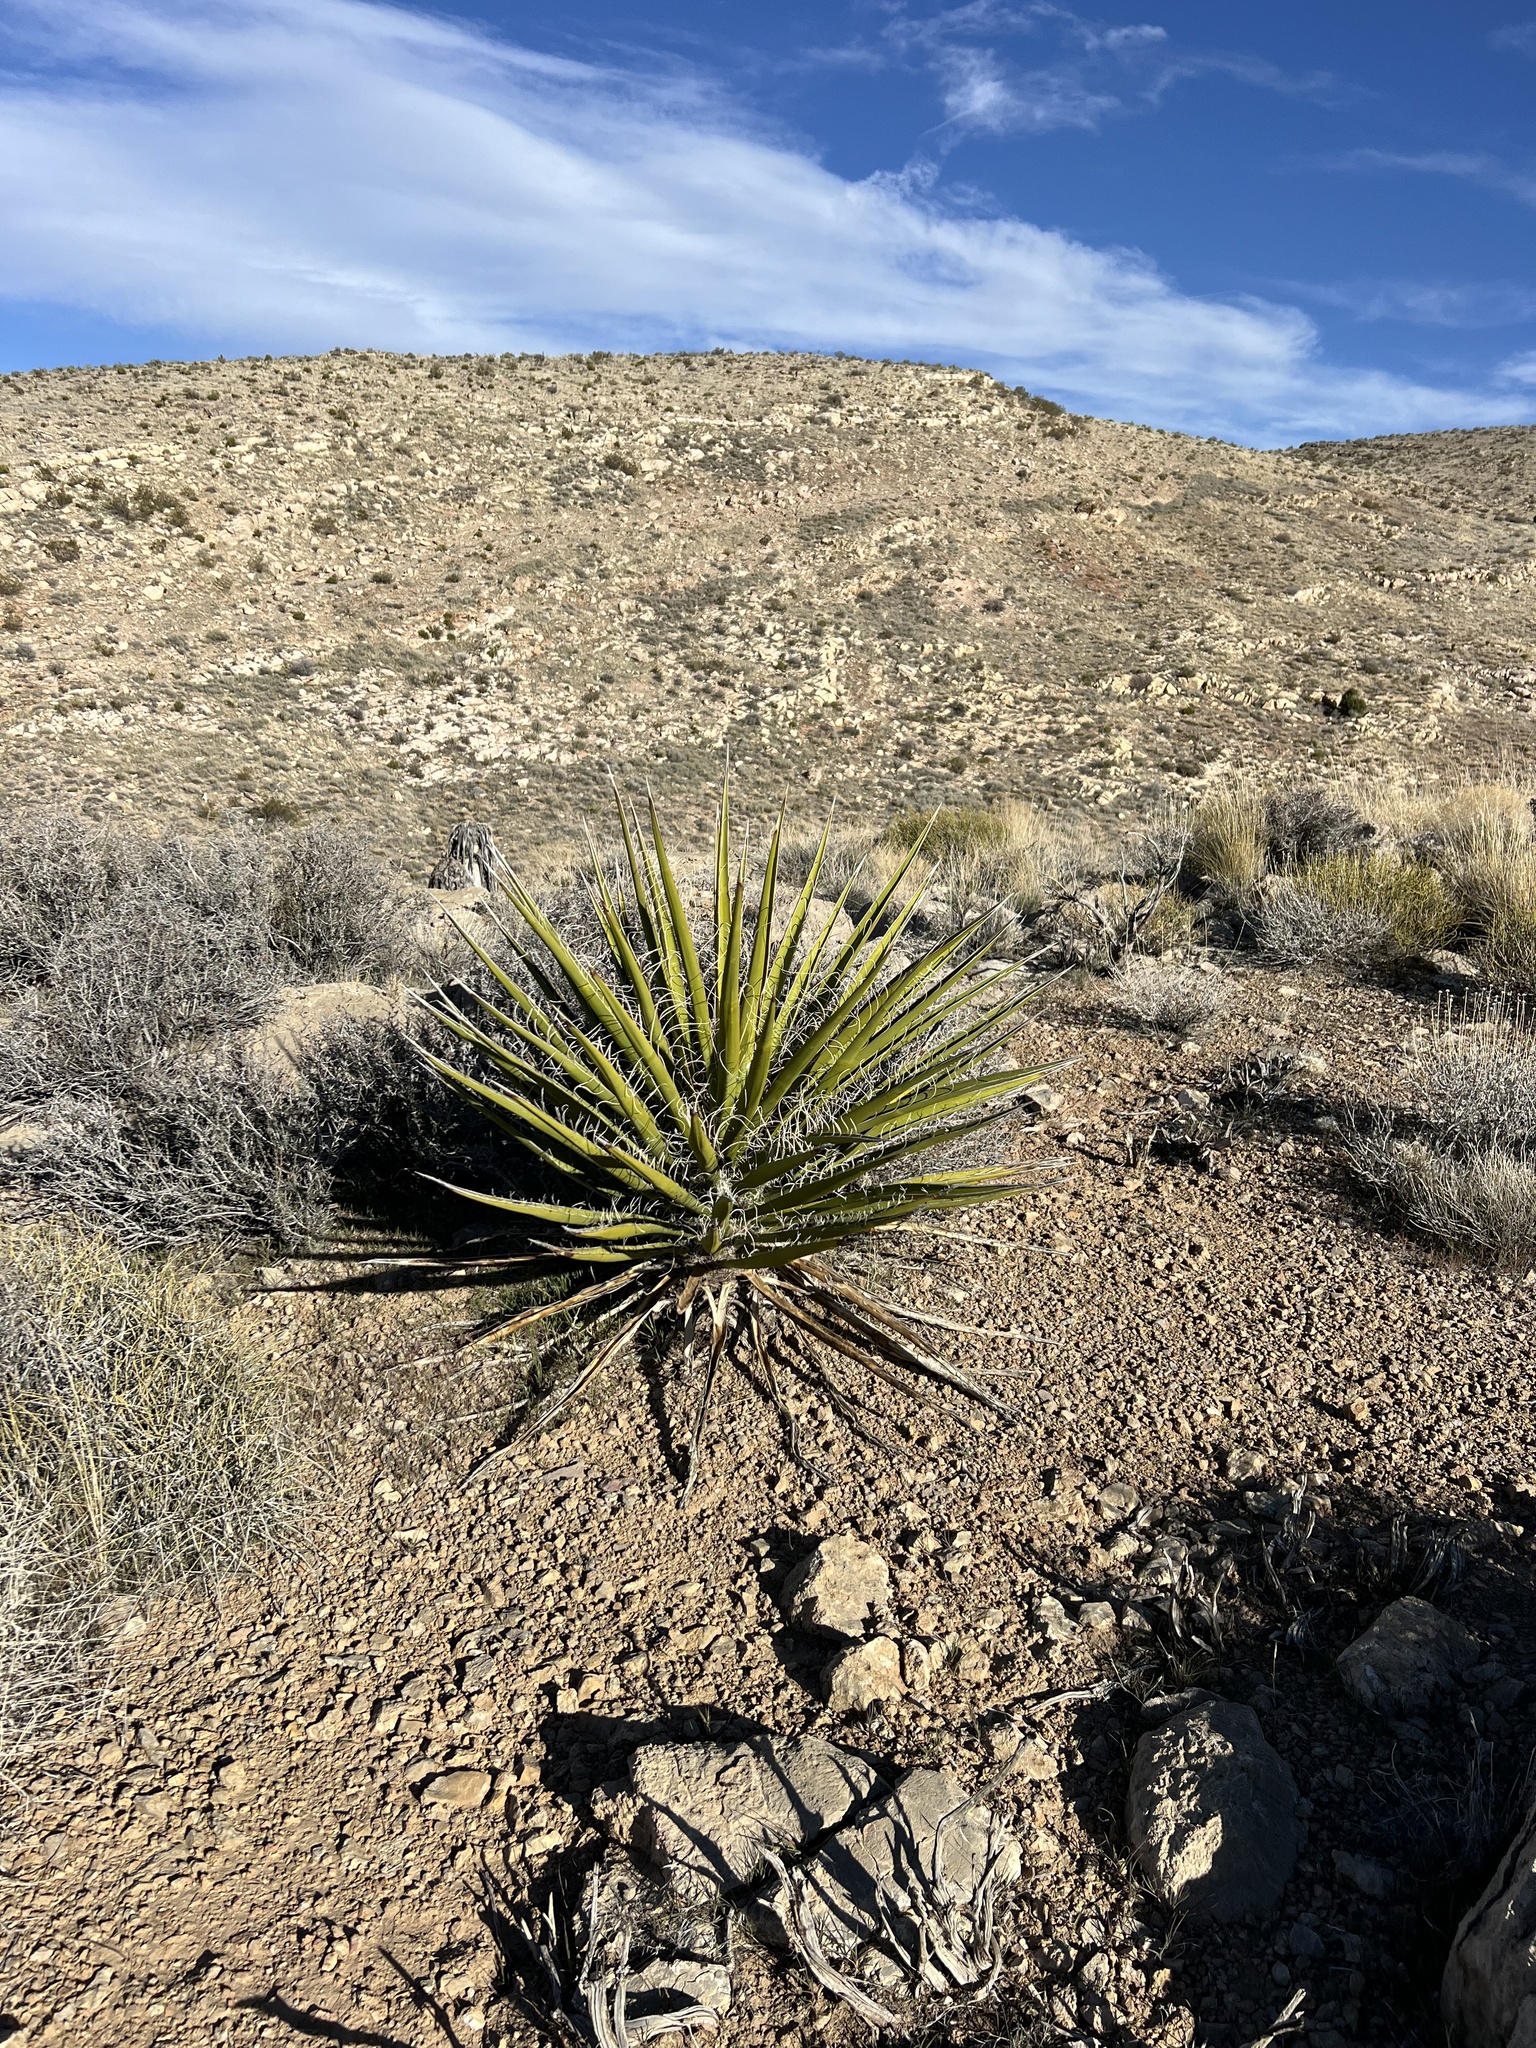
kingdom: Plantae
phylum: Tracheophyta
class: Liliopsida
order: Asparagales
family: Asparagaceae
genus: Yucca
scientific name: Yucca schidigera
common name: Mojave yucca
